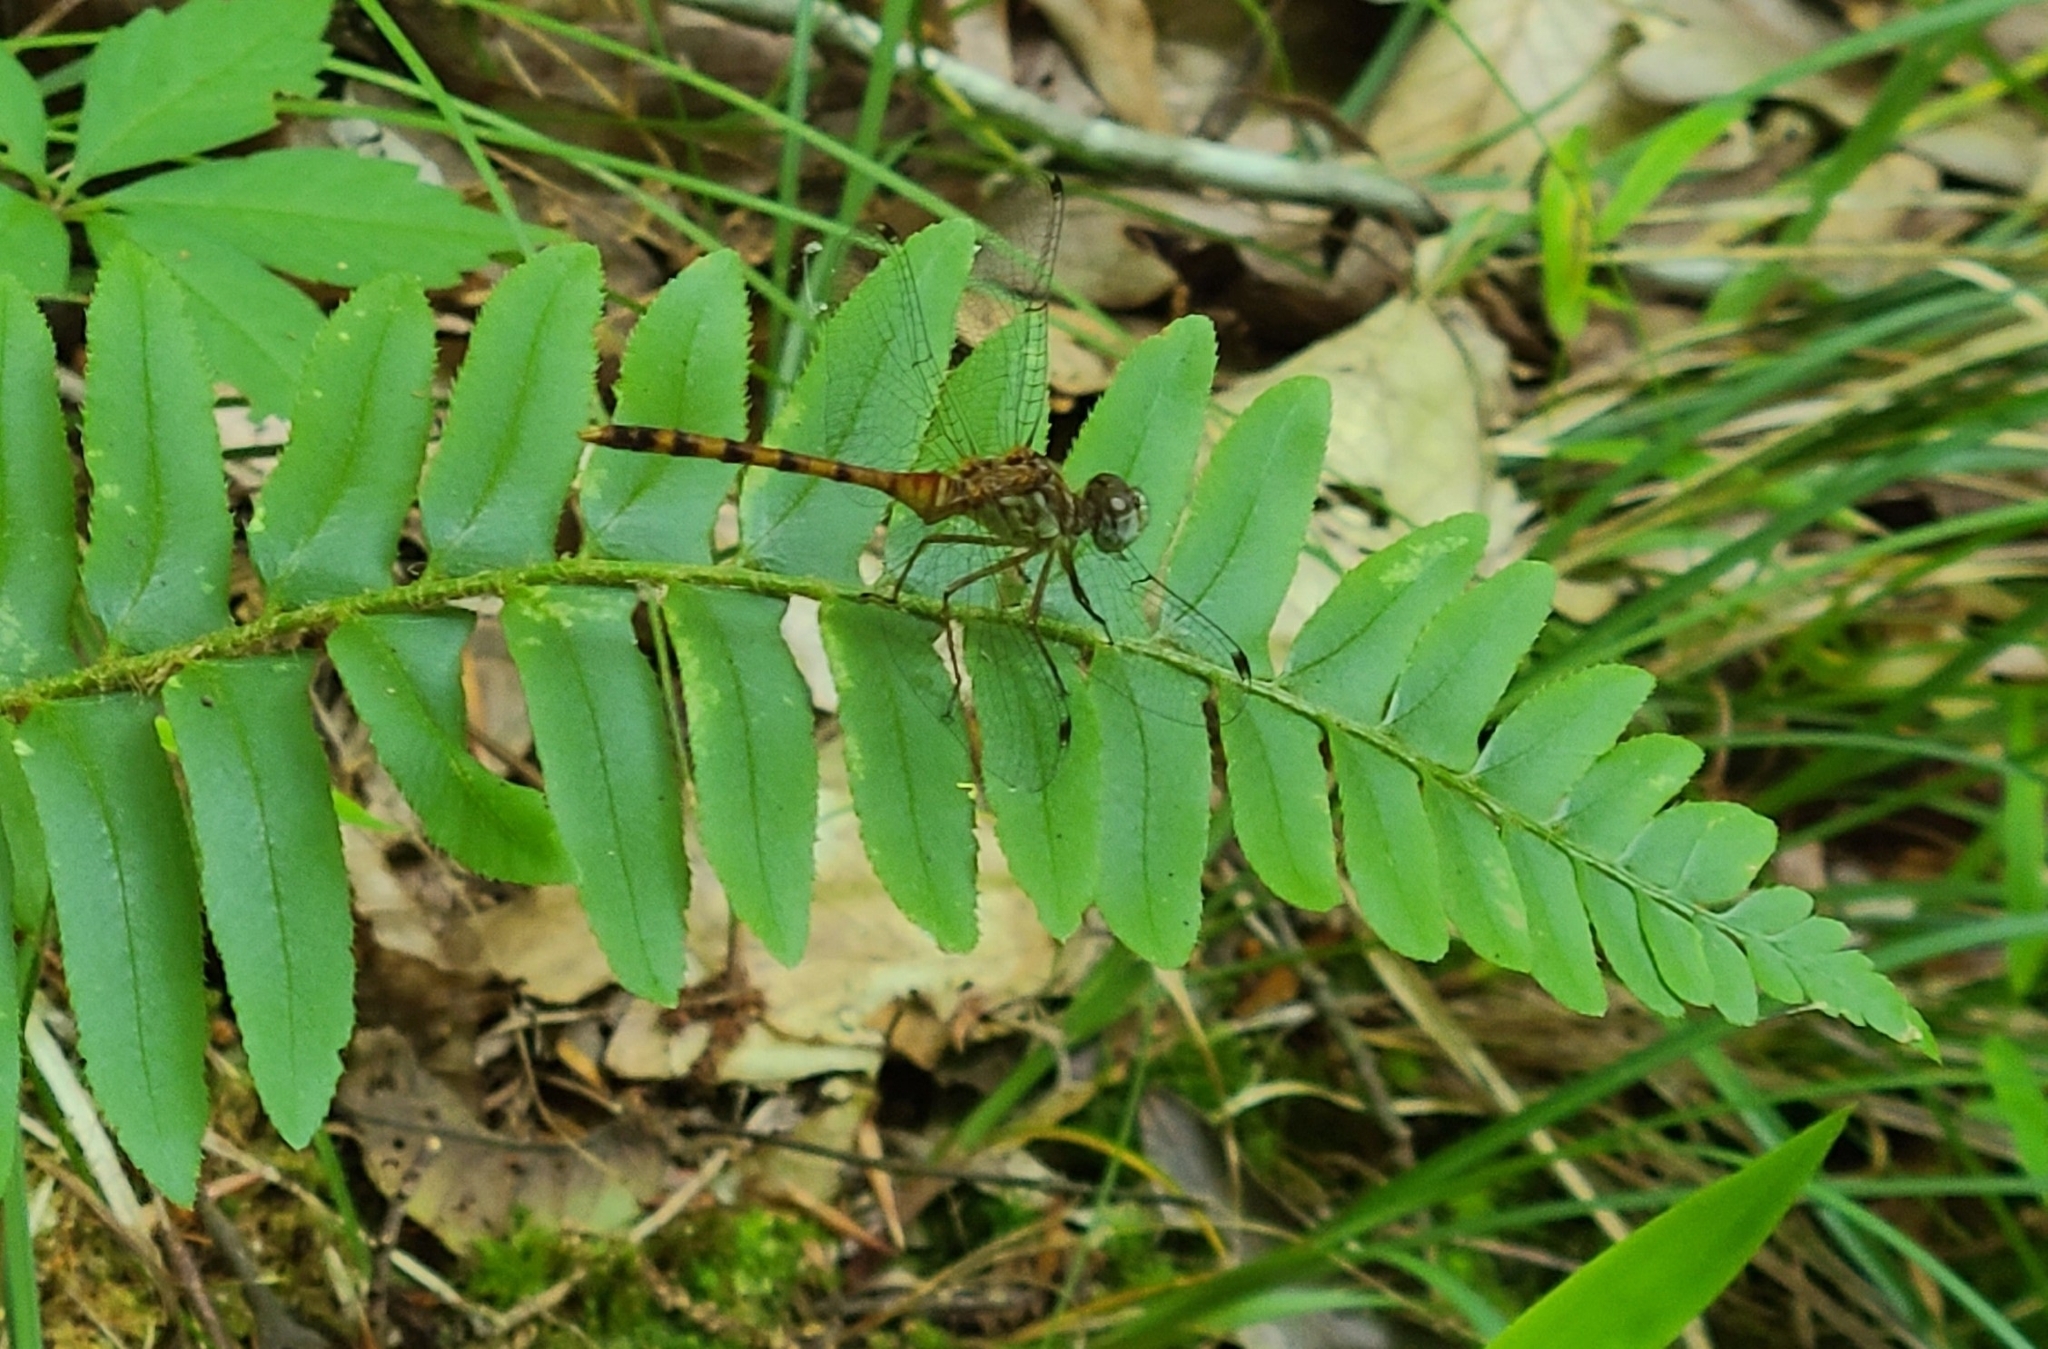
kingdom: Animalia
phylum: Arthropoda
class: Insecta
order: Odonata
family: Libellulidae
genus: Sympetrum
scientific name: Sympetrum ambiguum
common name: Blue-faced meadowhawk
